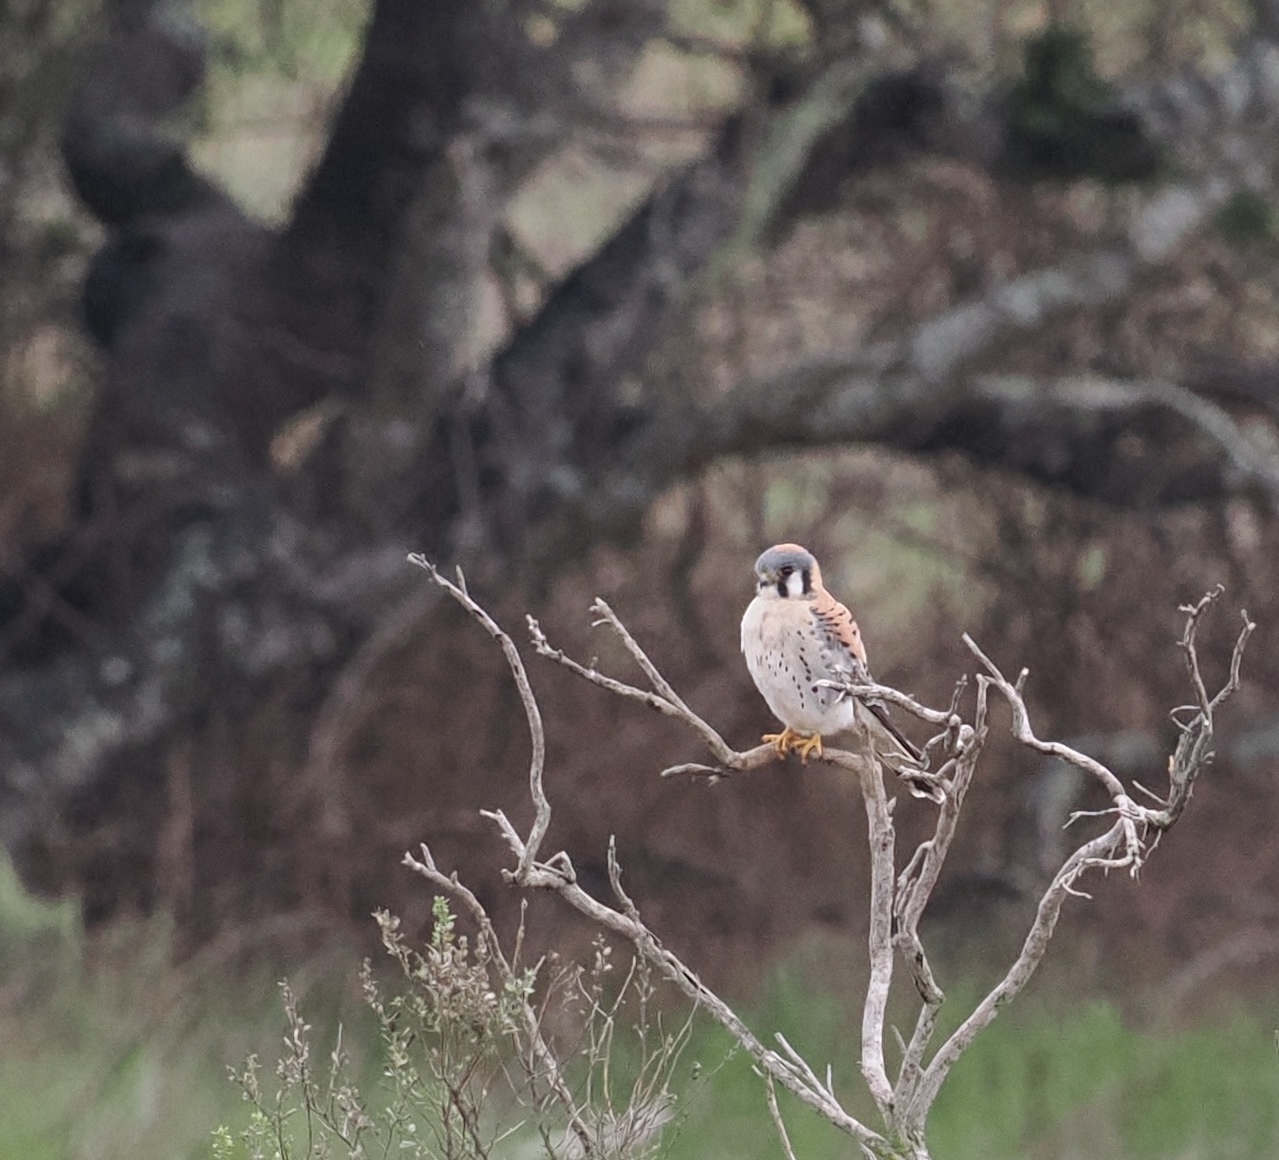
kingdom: Animalia
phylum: Chordata
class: Aves
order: Falconiformes
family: Falconidae
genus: Falco
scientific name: Falco sparverius
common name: American kestrel
